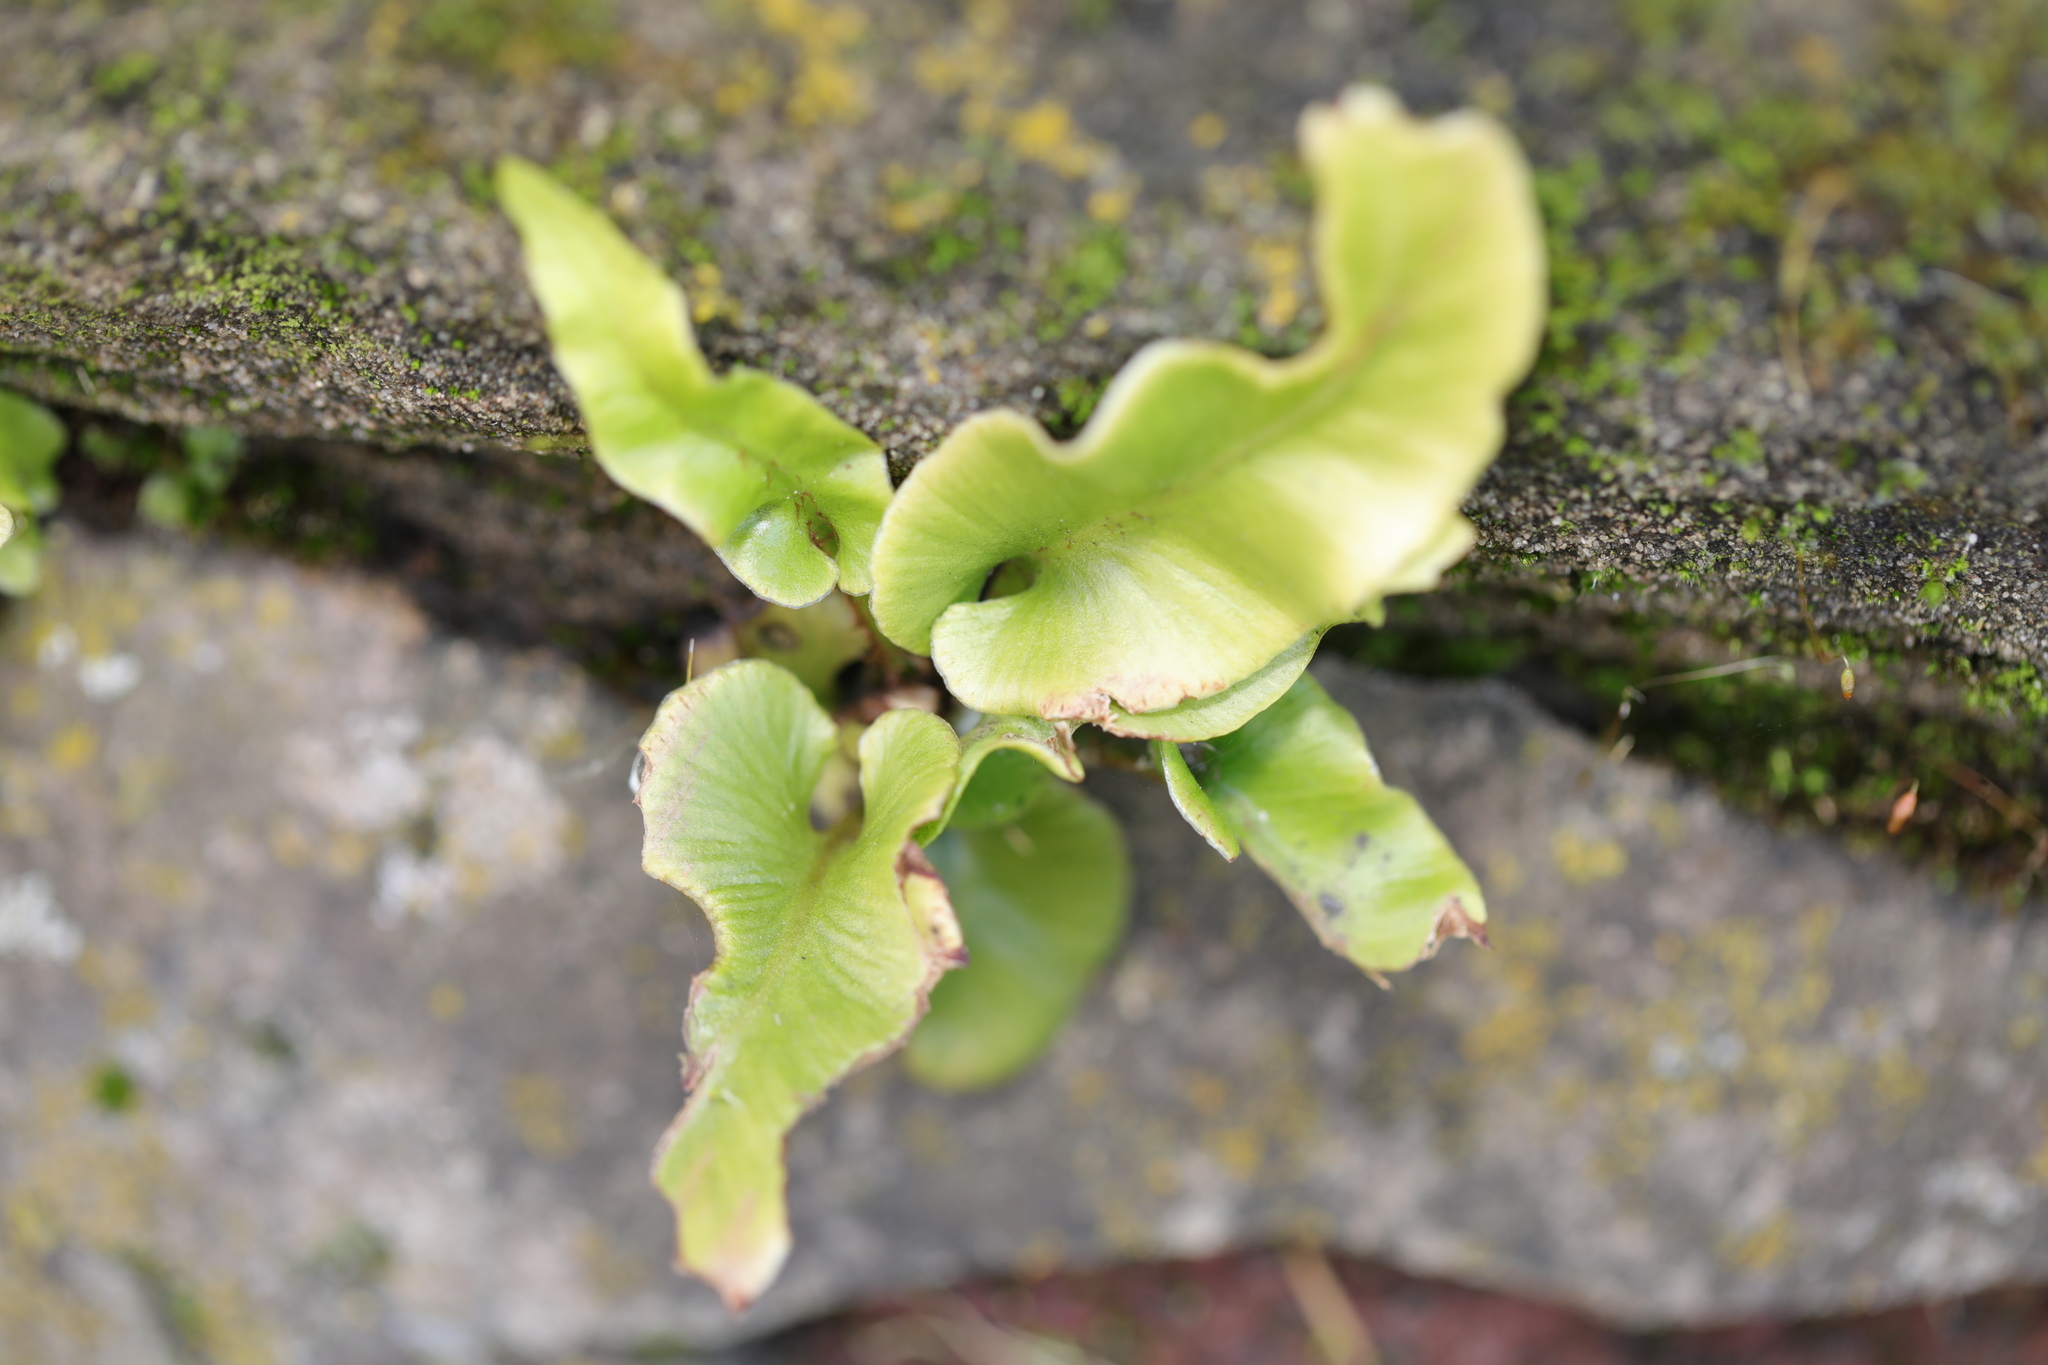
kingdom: Plantae
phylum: Tracheophyta
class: Polypodiopsida
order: Polypodiales
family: Aspleniaceae
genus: Asplenium
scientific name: Asplenium scolopendrium
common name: Hart's-tongue fern
